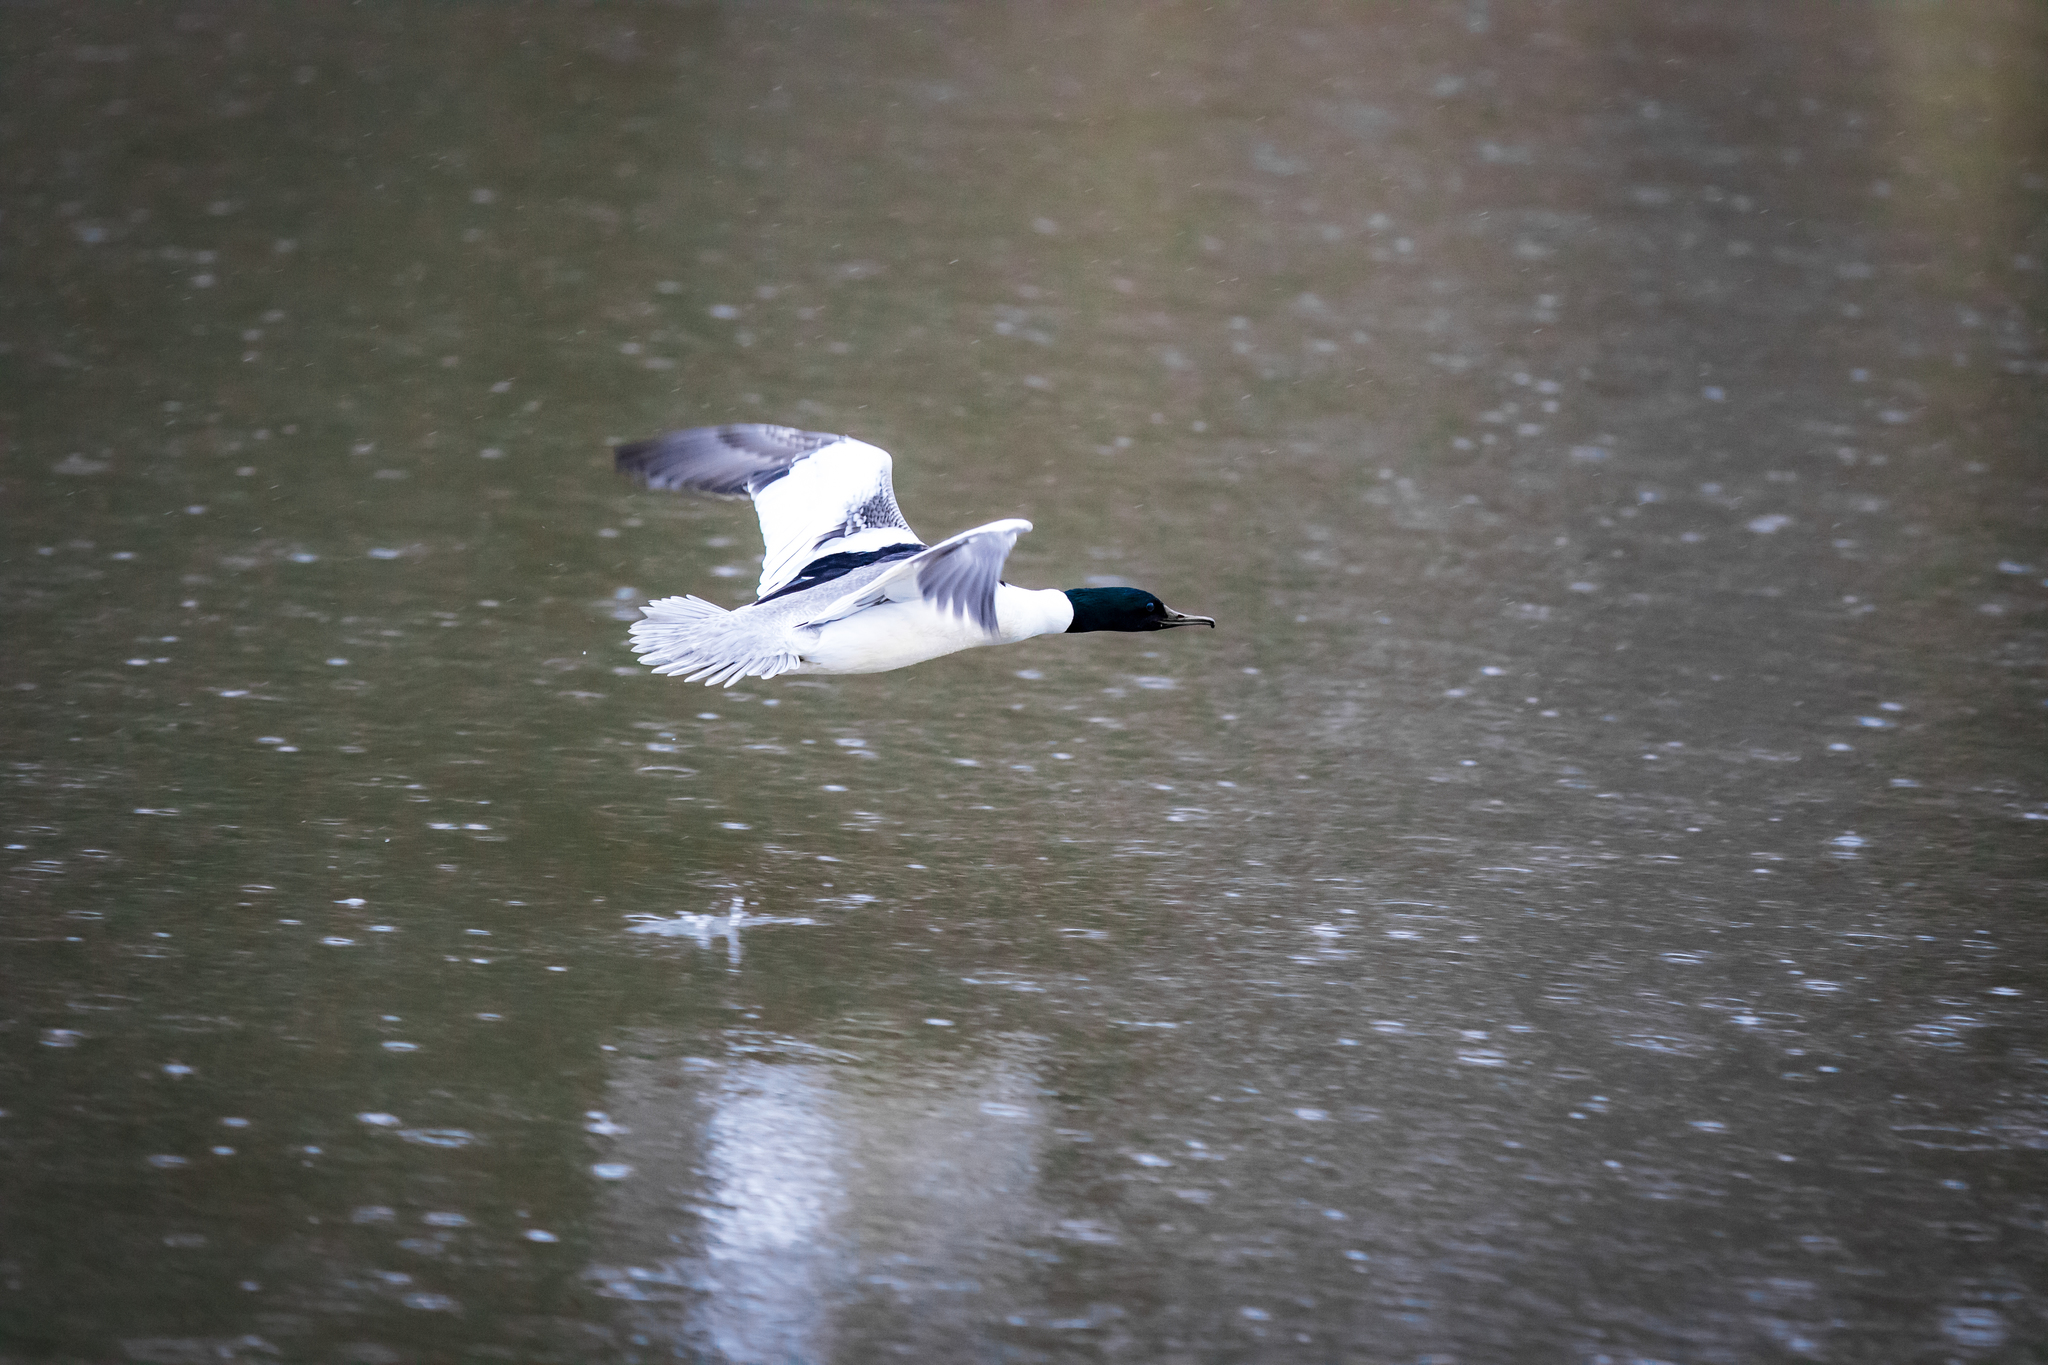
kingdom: Animalia
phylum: Chordata
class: Aves
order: Anseriformes
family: Anatidae
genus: Mergus
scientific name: Mergus merganser
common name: Common merganser
